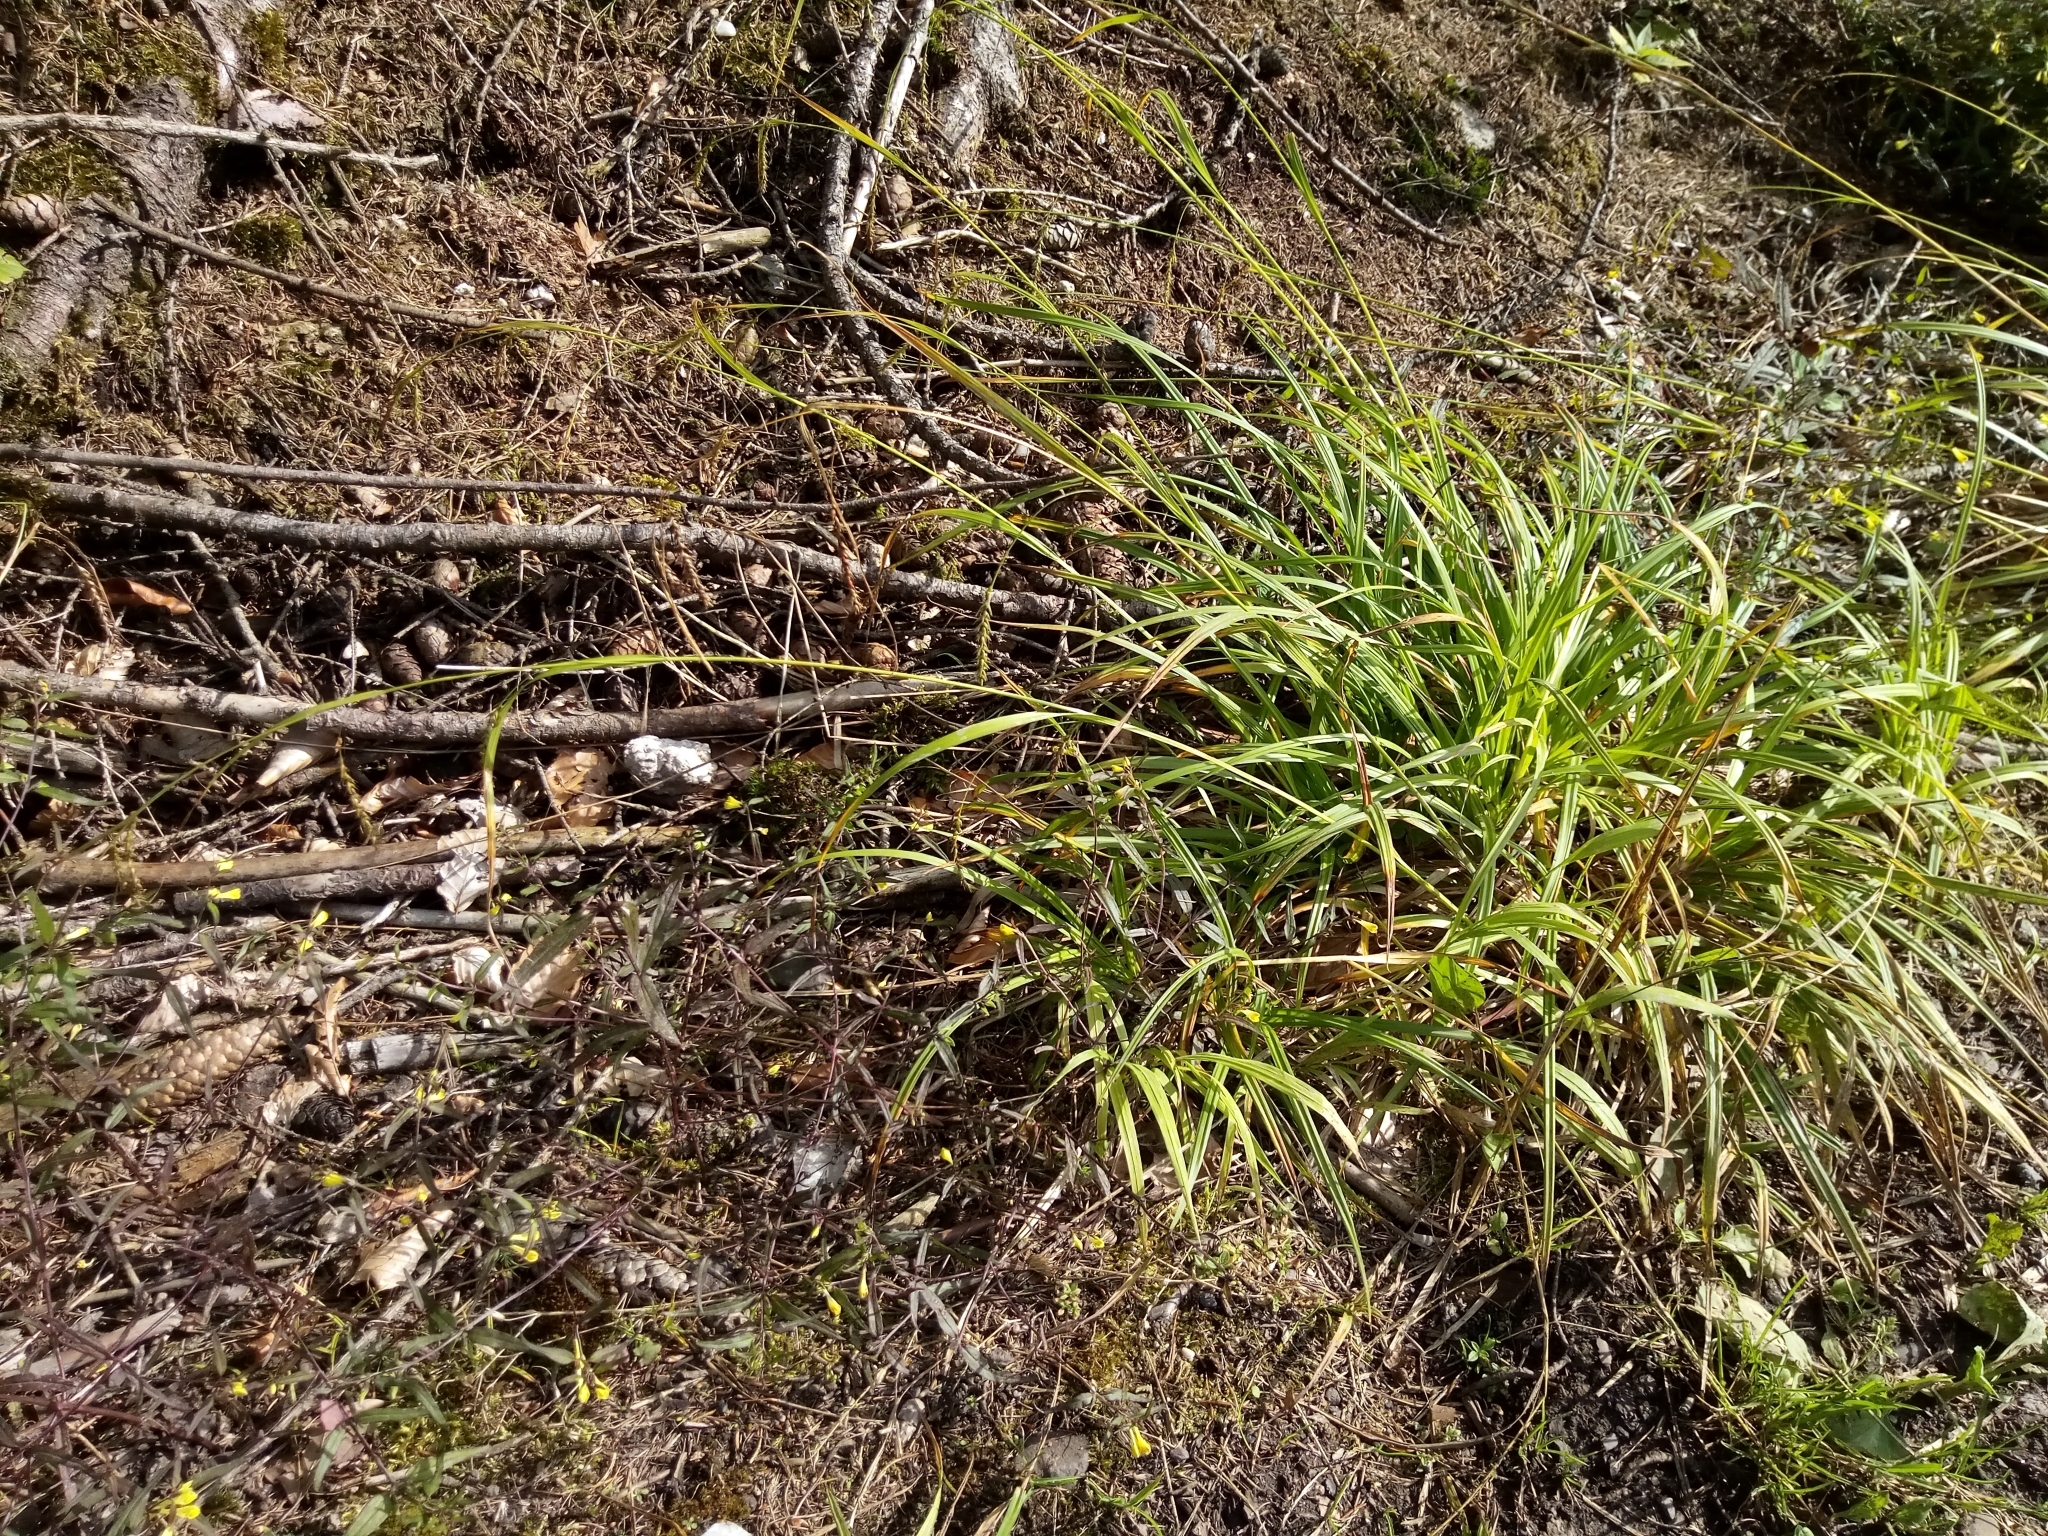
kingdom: Plantae
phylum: Tracheophyta
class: Liliopsida
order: Poales
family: Cyperaceae
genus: Carex
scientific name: Carex sylvatica
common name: Wood-sedge
